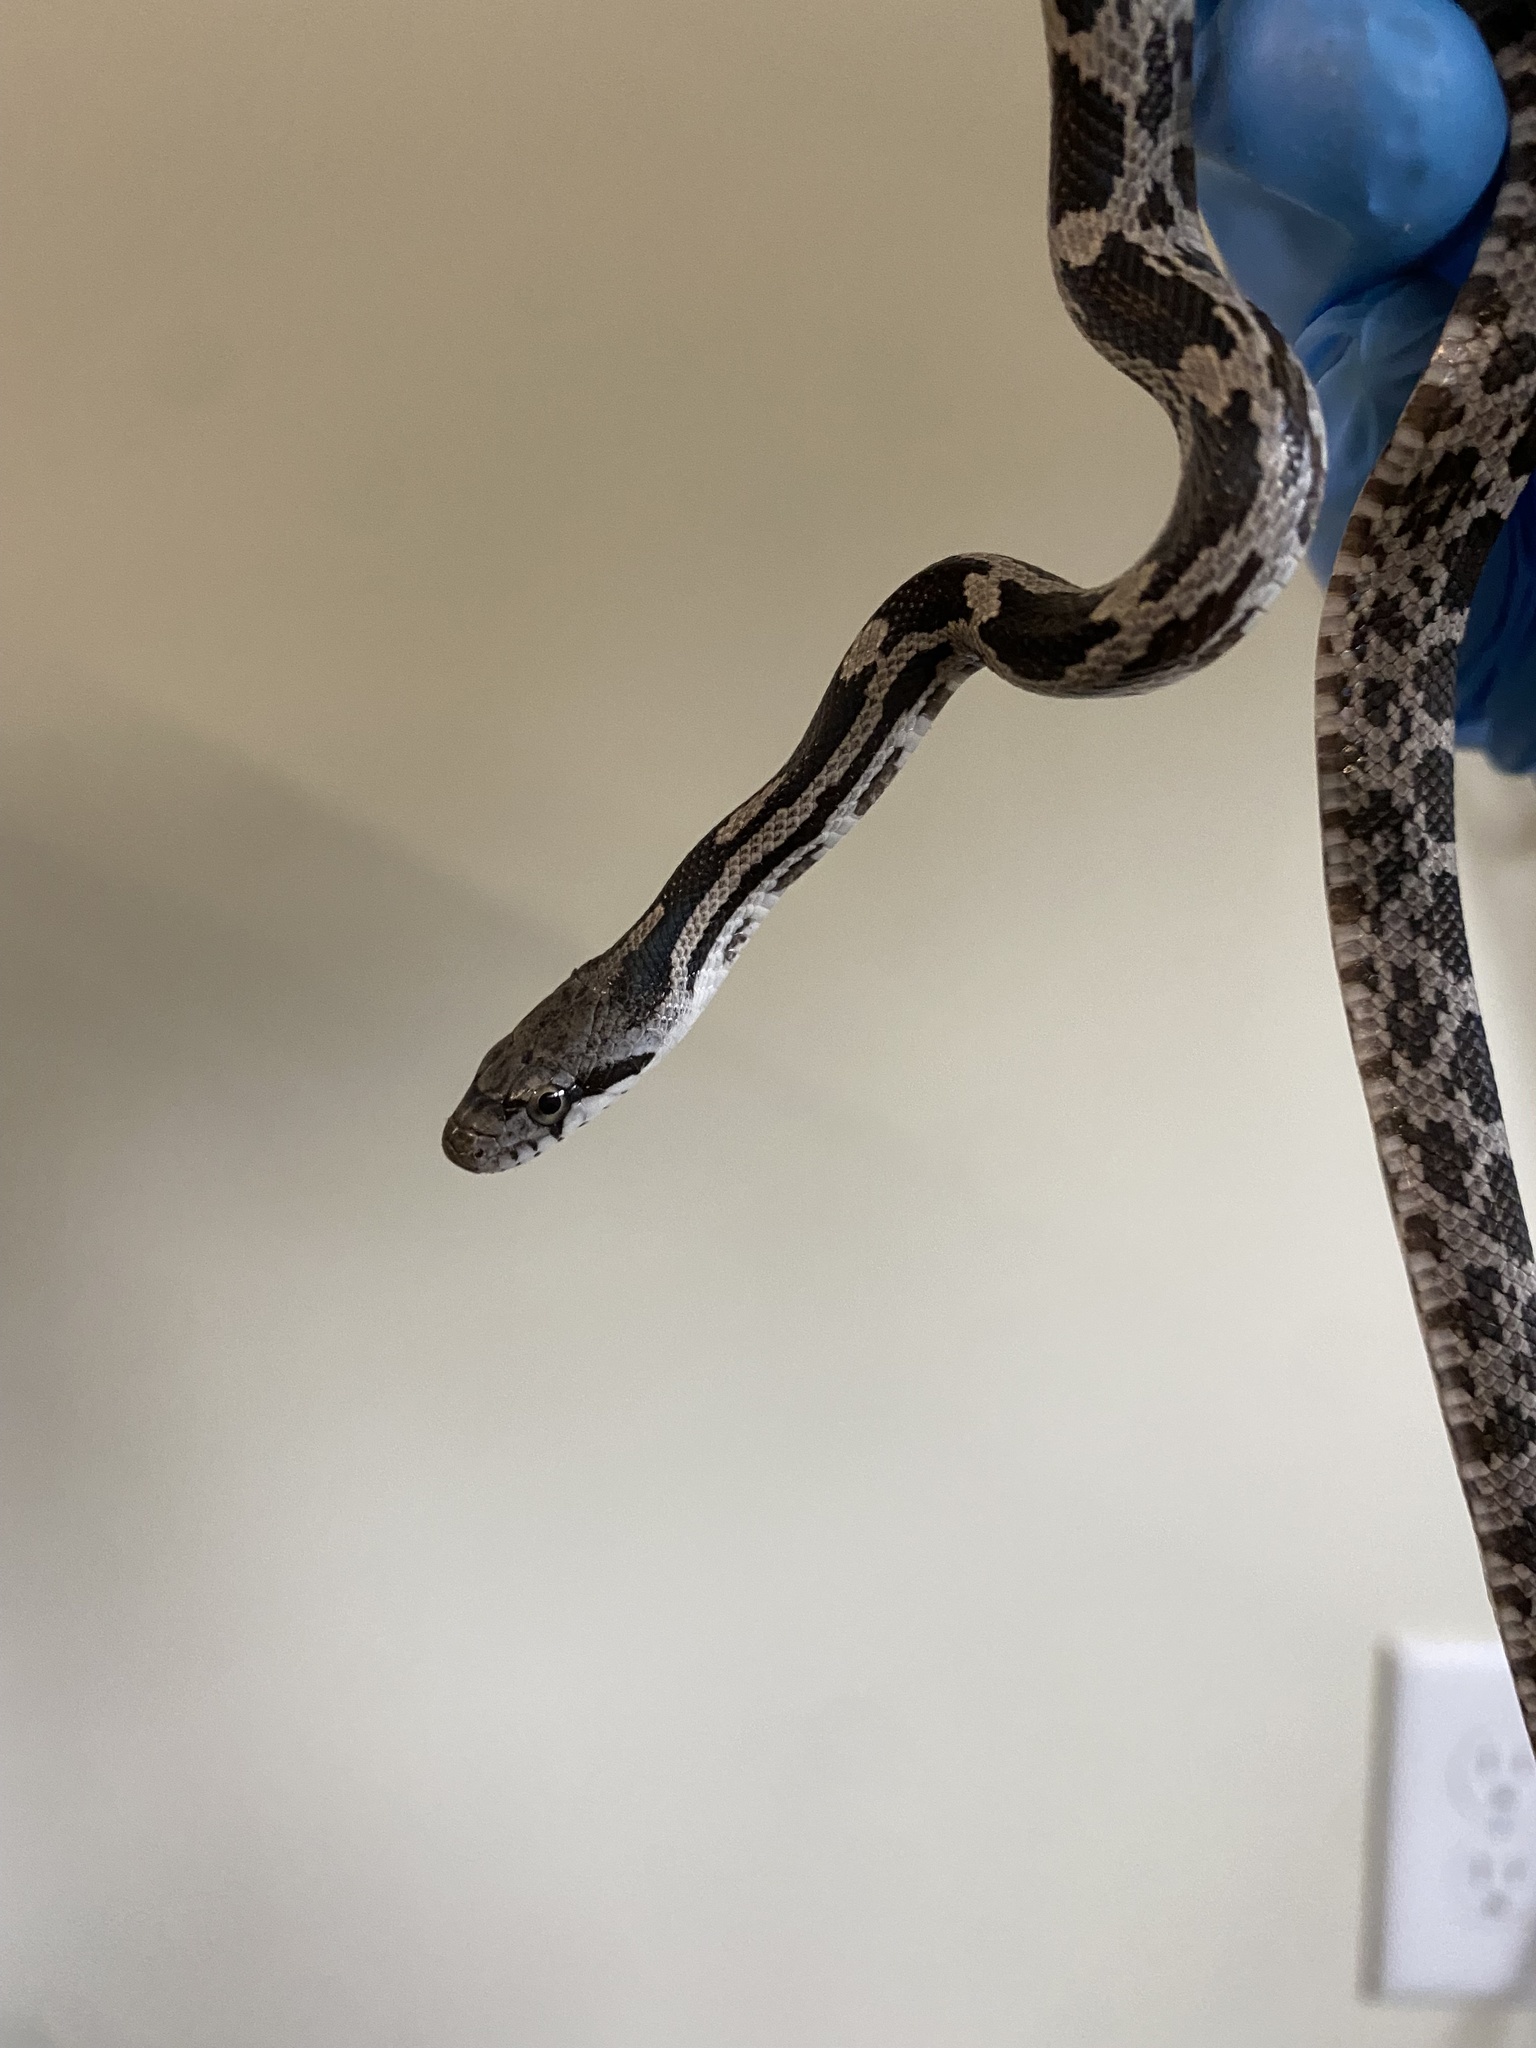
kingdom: Animalia
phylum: Chordata
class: Squamata
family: Colubridae
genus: Pantherophis
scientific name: Pantherophis spiloides
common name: Gray rat snake
